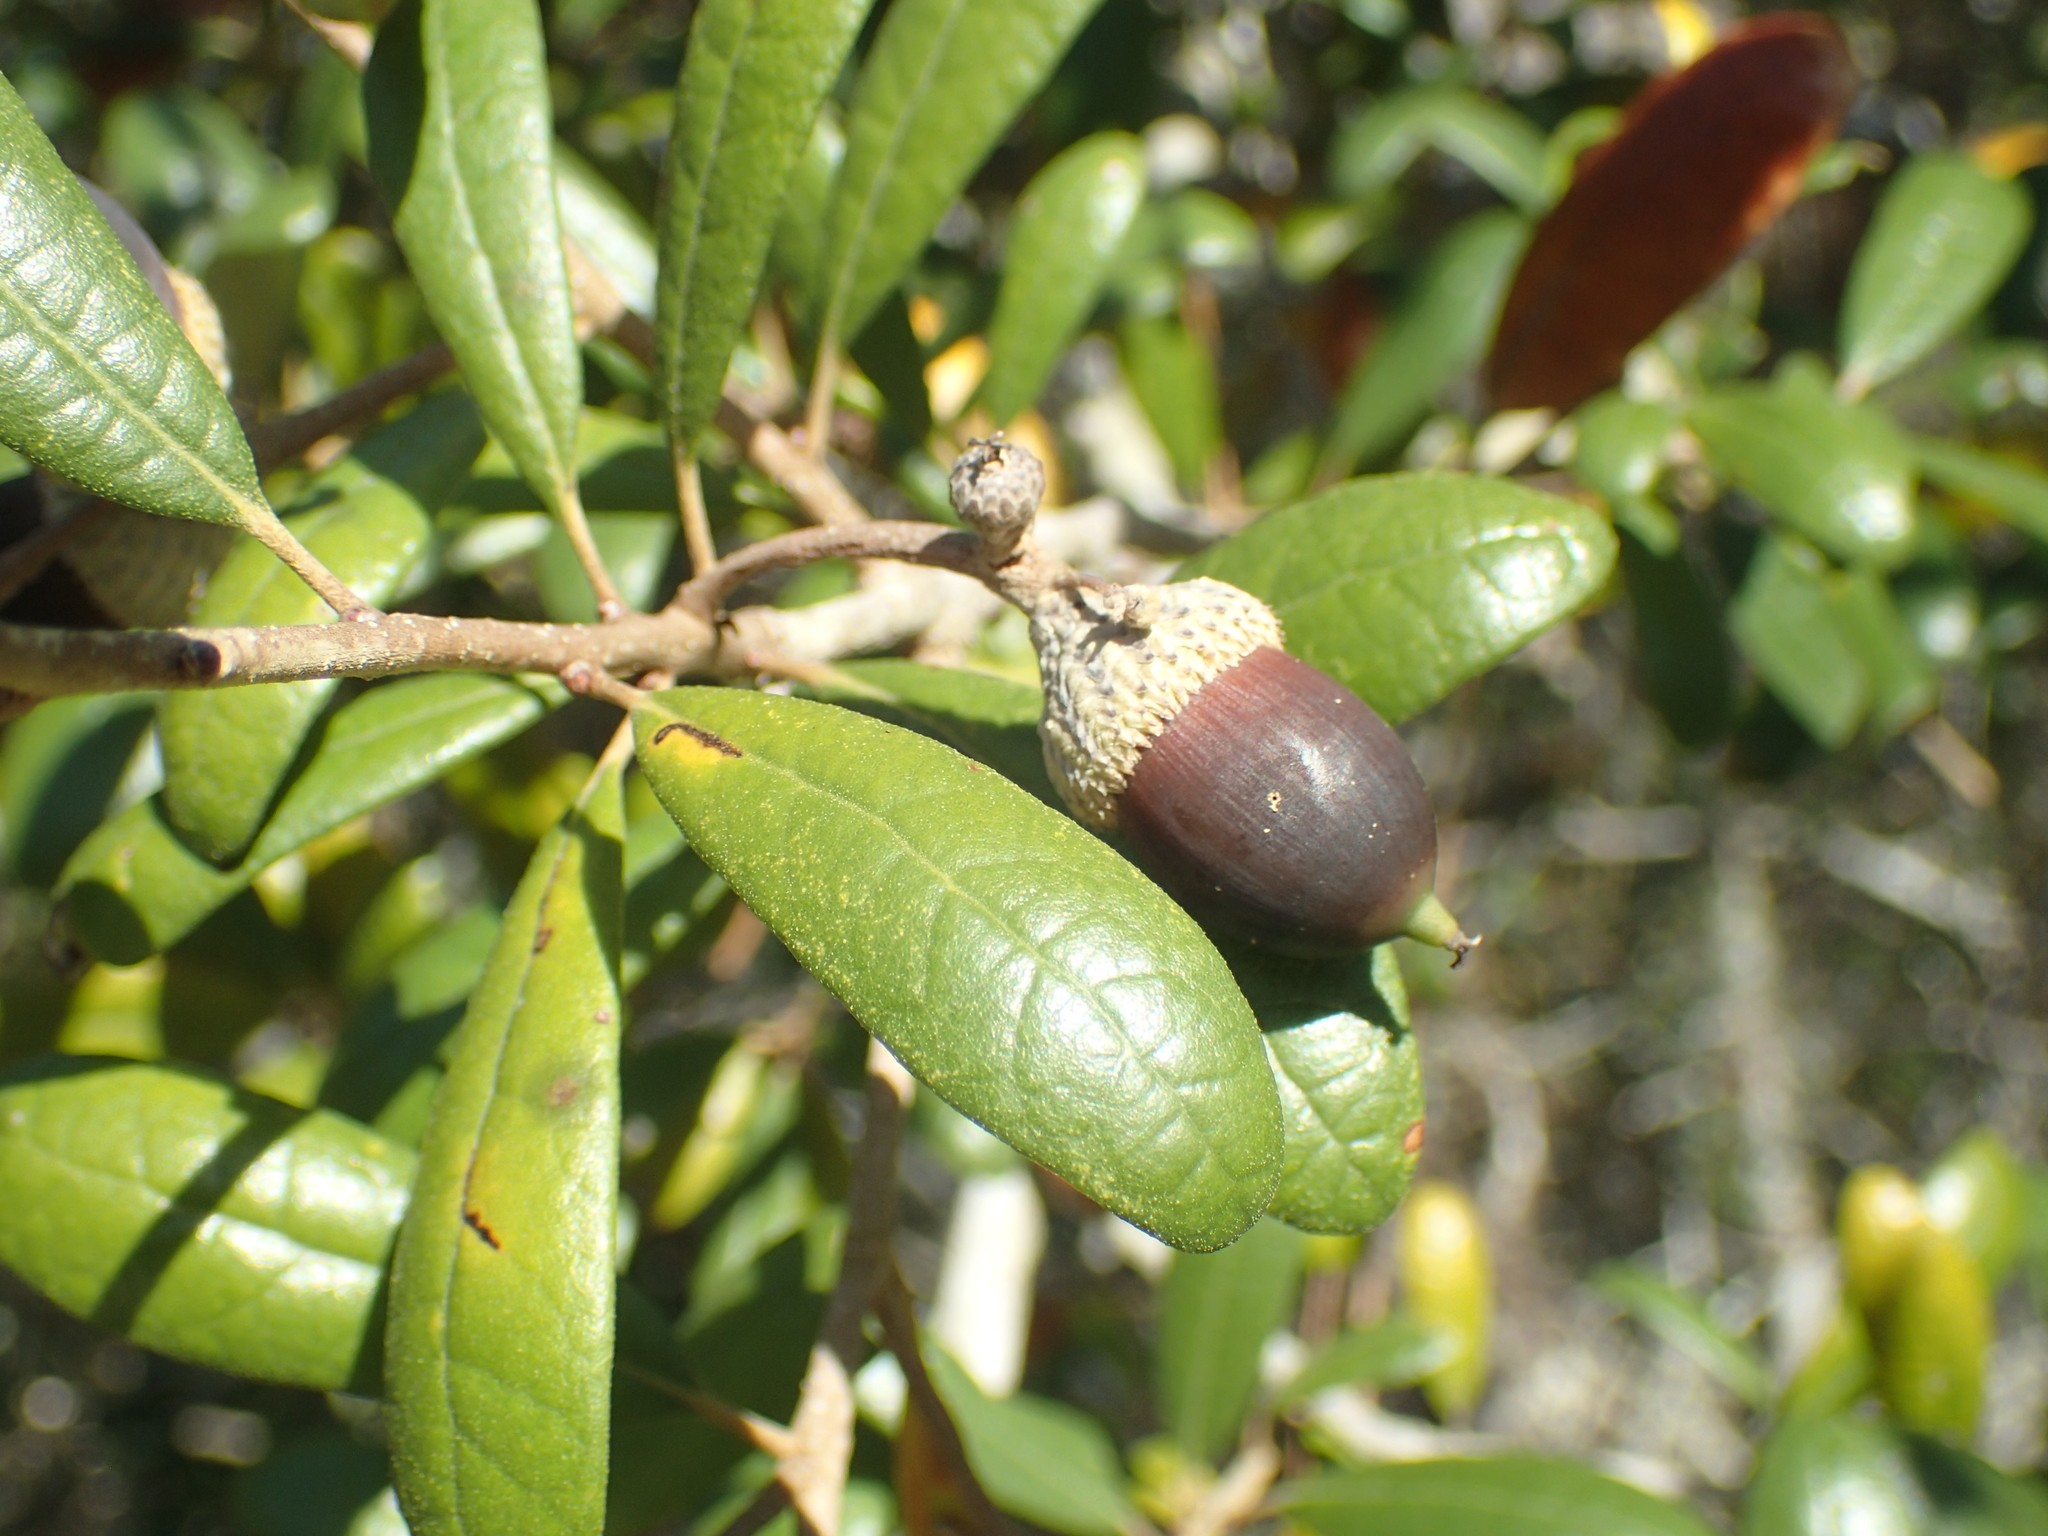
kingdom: Plantae
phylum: Tracheophyta
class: Magnoliopsida
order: Fagales
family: Fagaceae
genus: Quercus
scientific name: Quercus geminata
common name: Sand live oak
